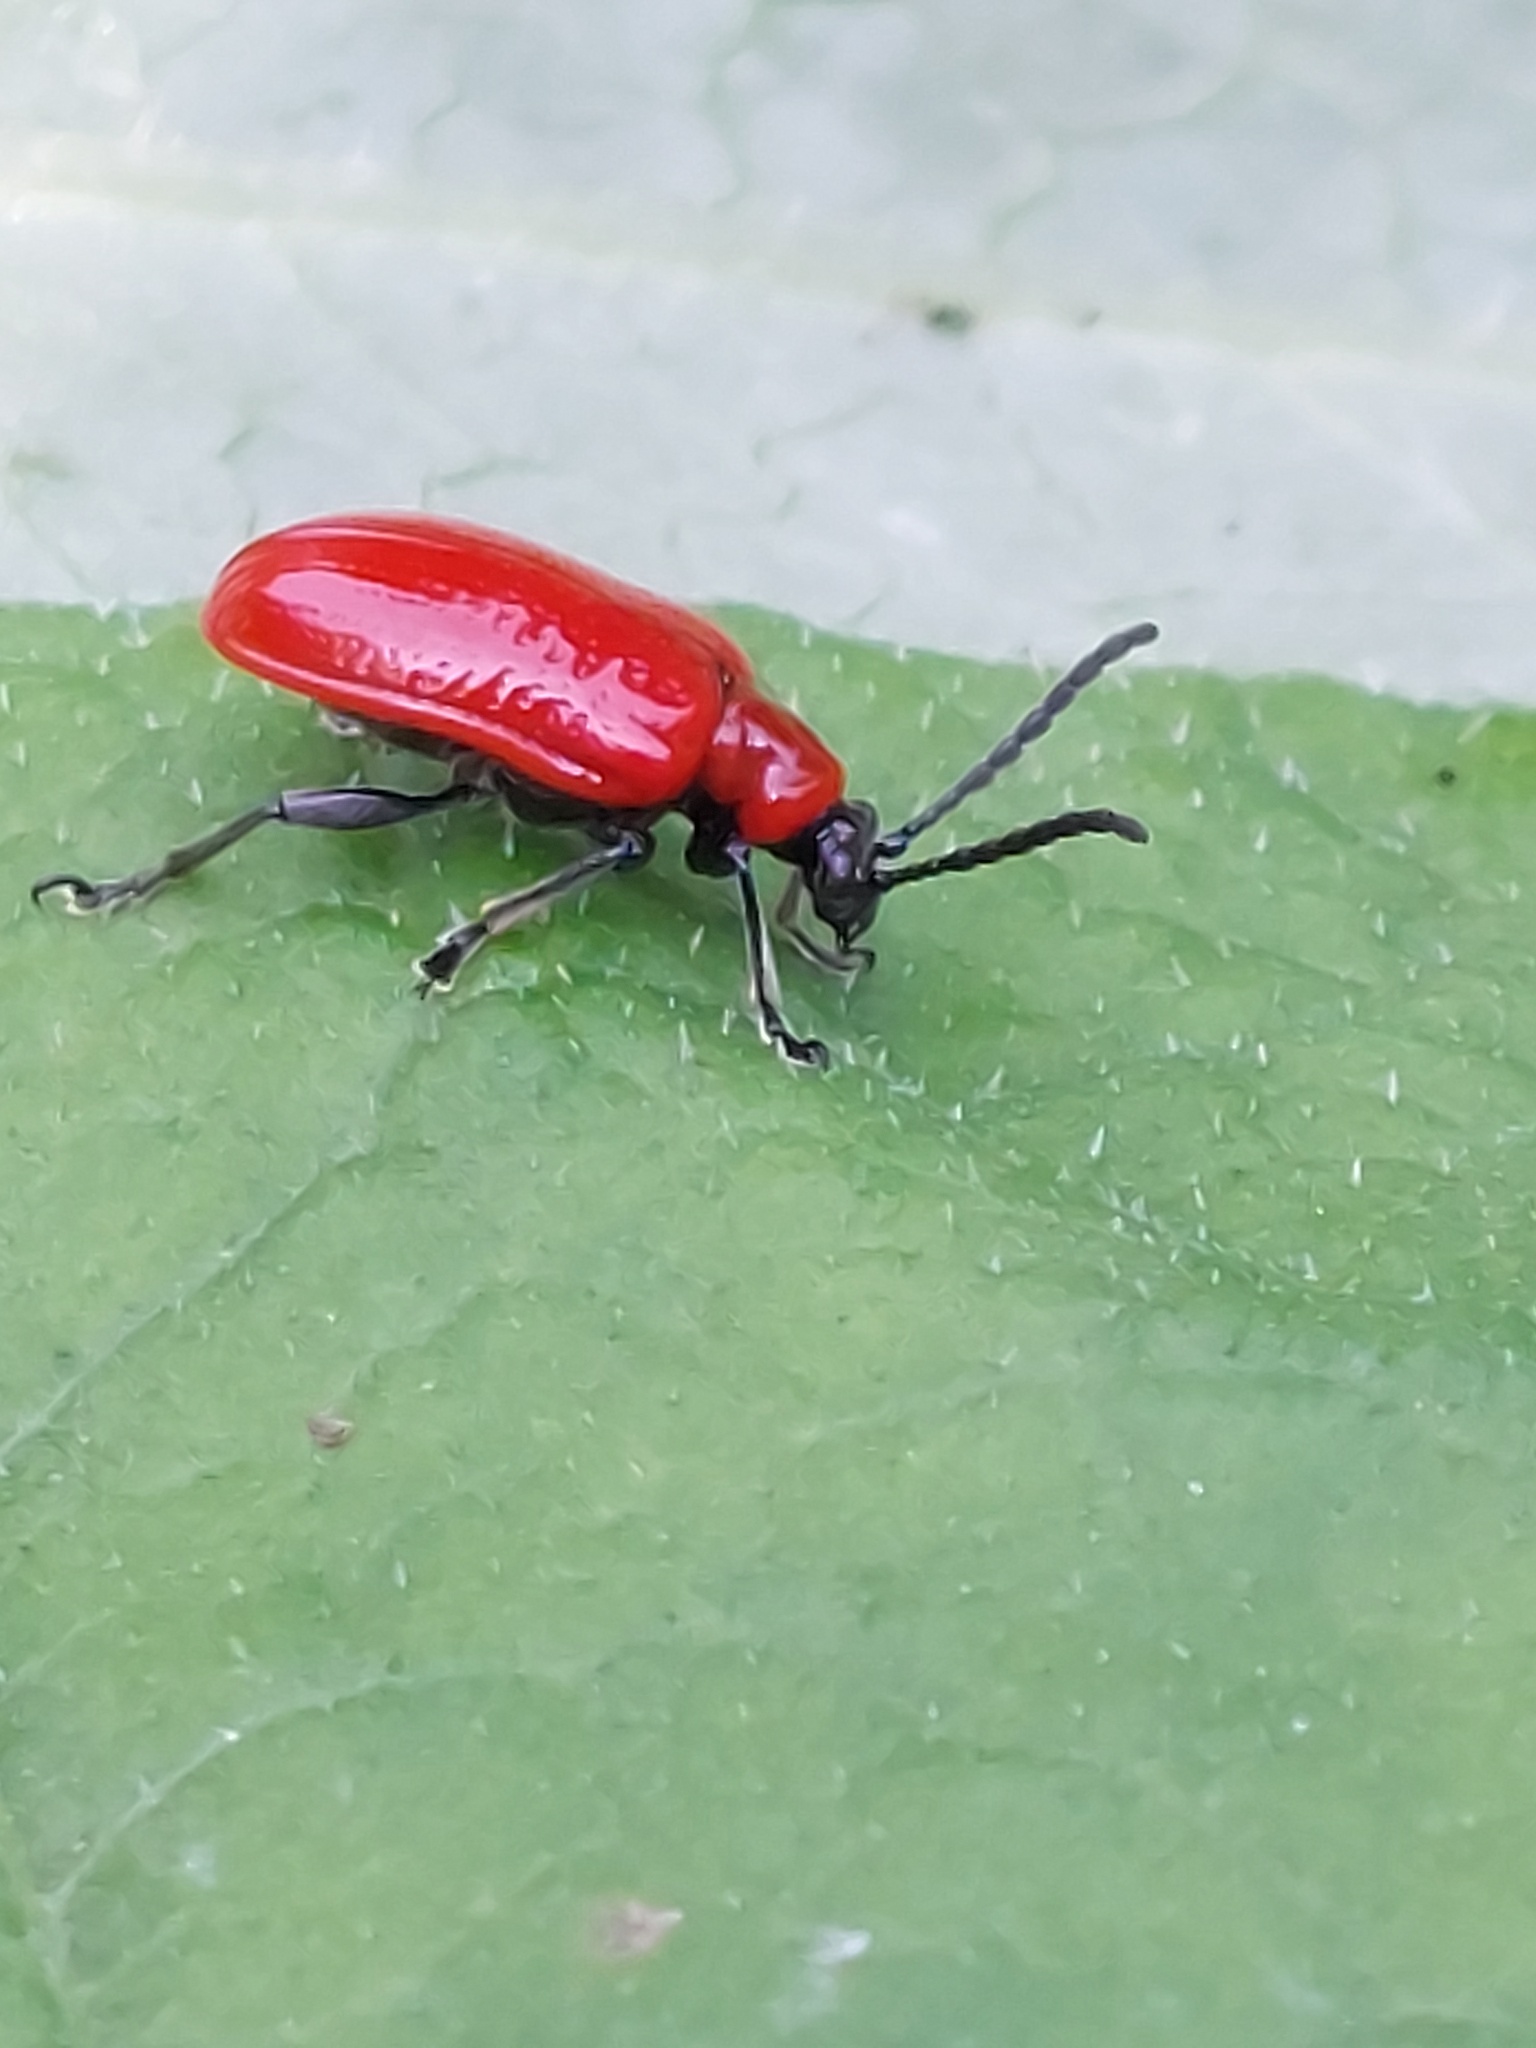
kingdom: Animalia
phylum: Arthropoda
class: Insecta
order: Coleoptera
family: Chrysomelidae
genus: Lilioceris
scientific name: Lilioceris lilii
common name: Lily beetle
